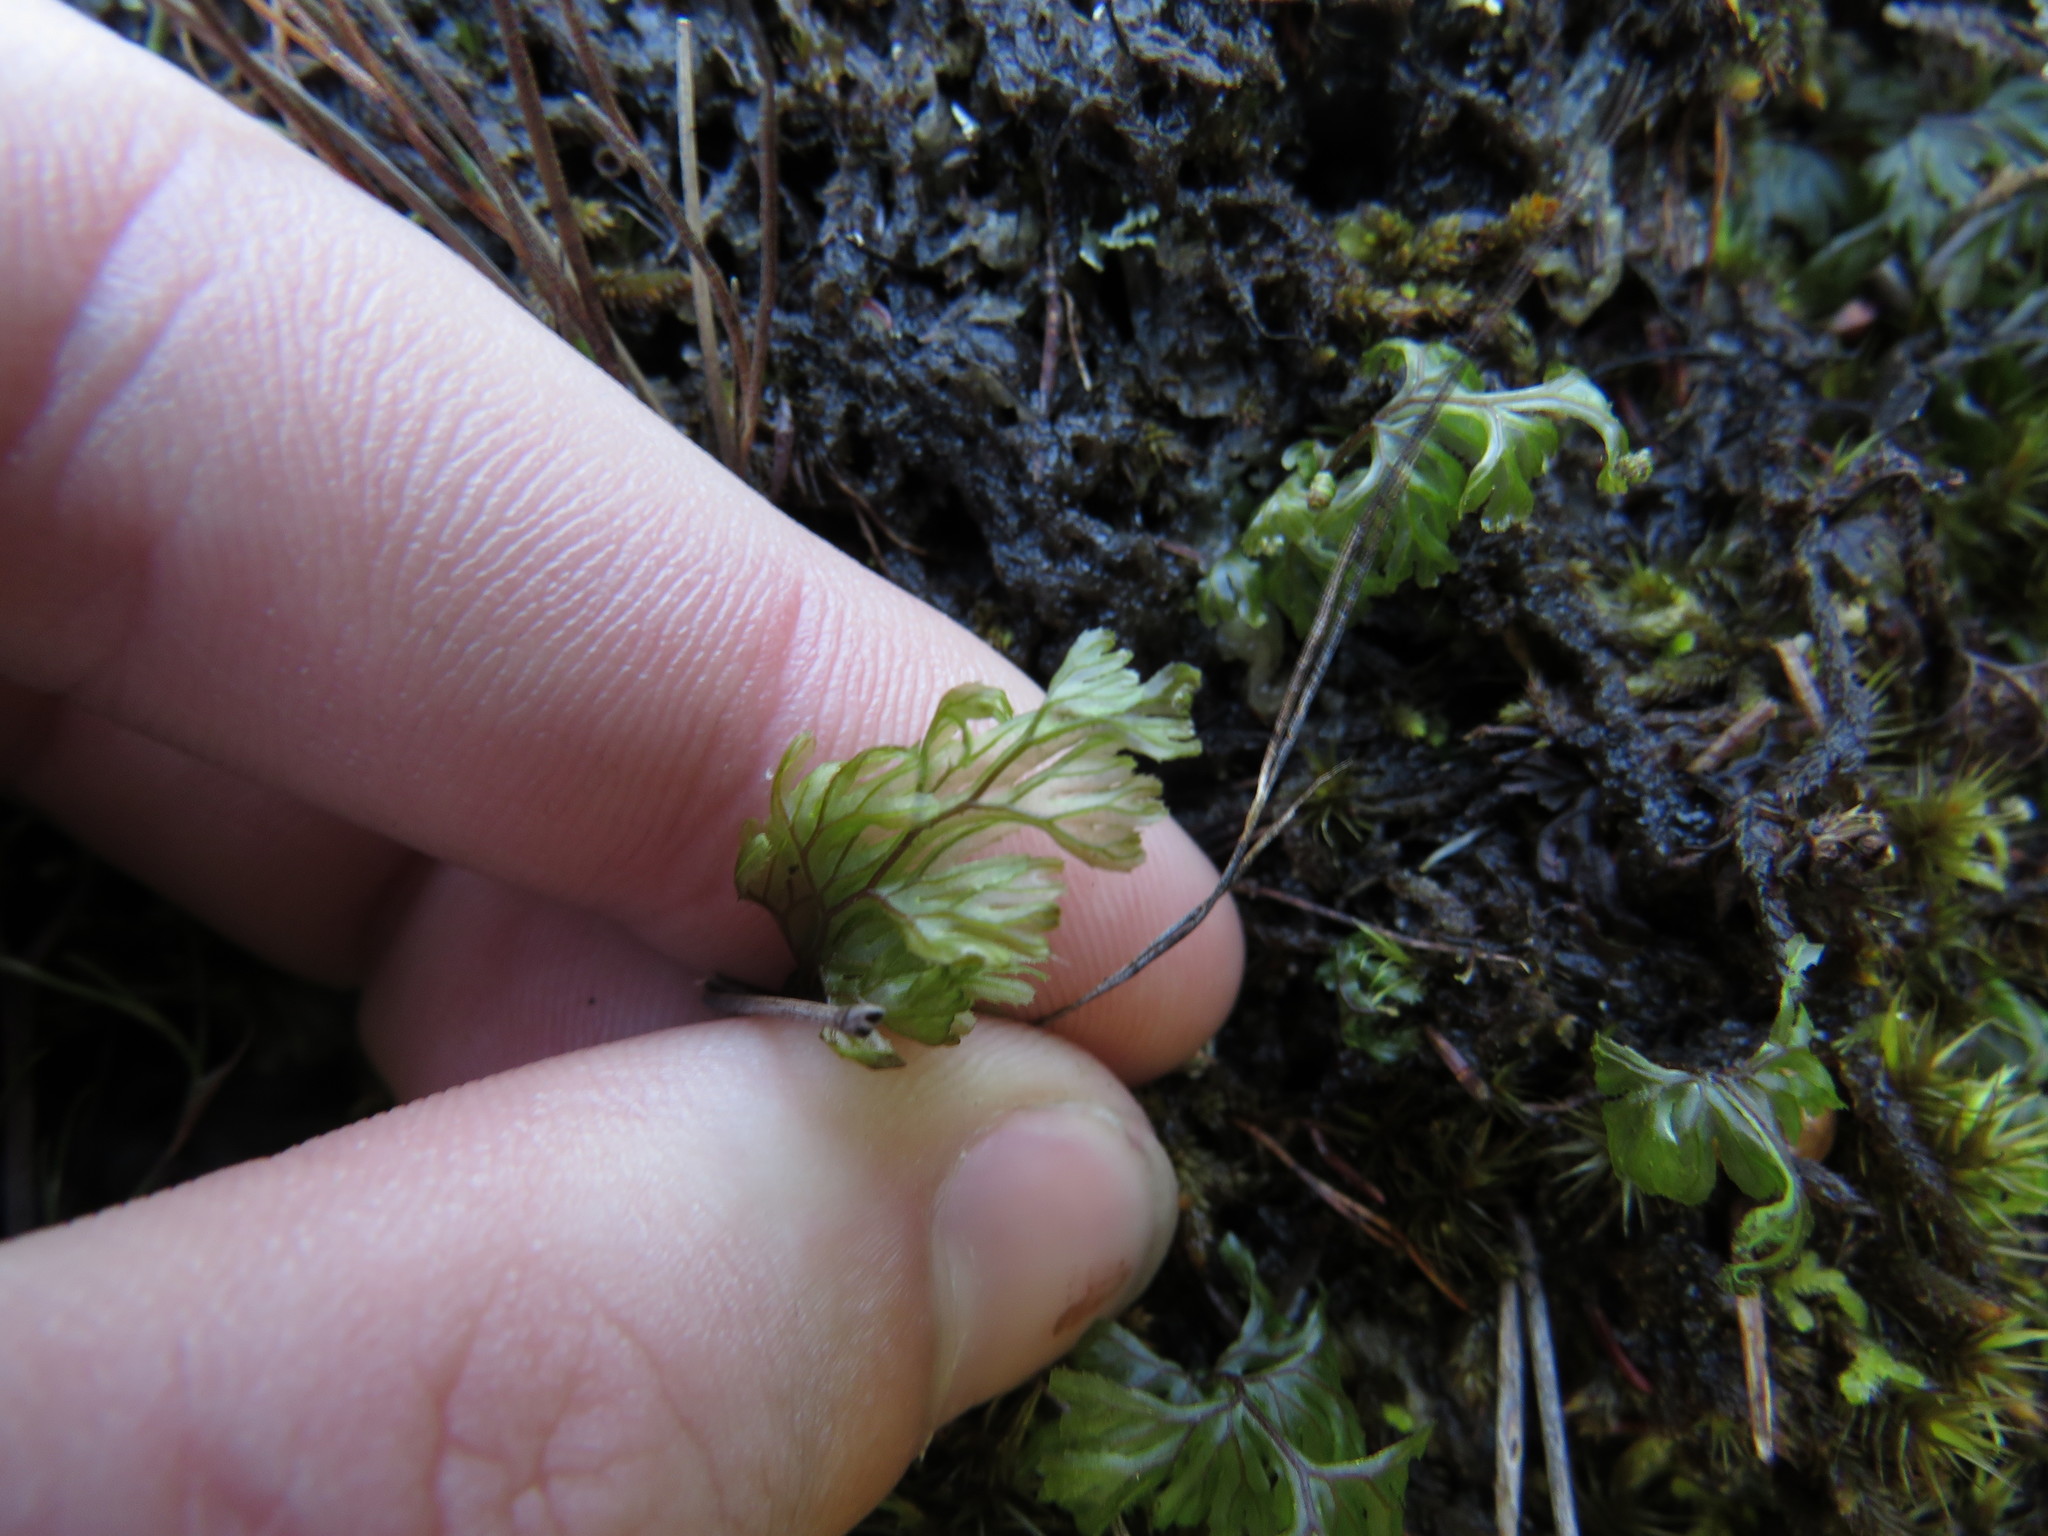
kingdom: Plantae
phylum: Tracheophyta
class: Polypodiopsida
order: Hymenophyllales
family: Hymenophyllaceae
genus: Hymenophyllum
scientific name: Hymenophyllum tunbrigense
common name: Tunbridge filmy fern
